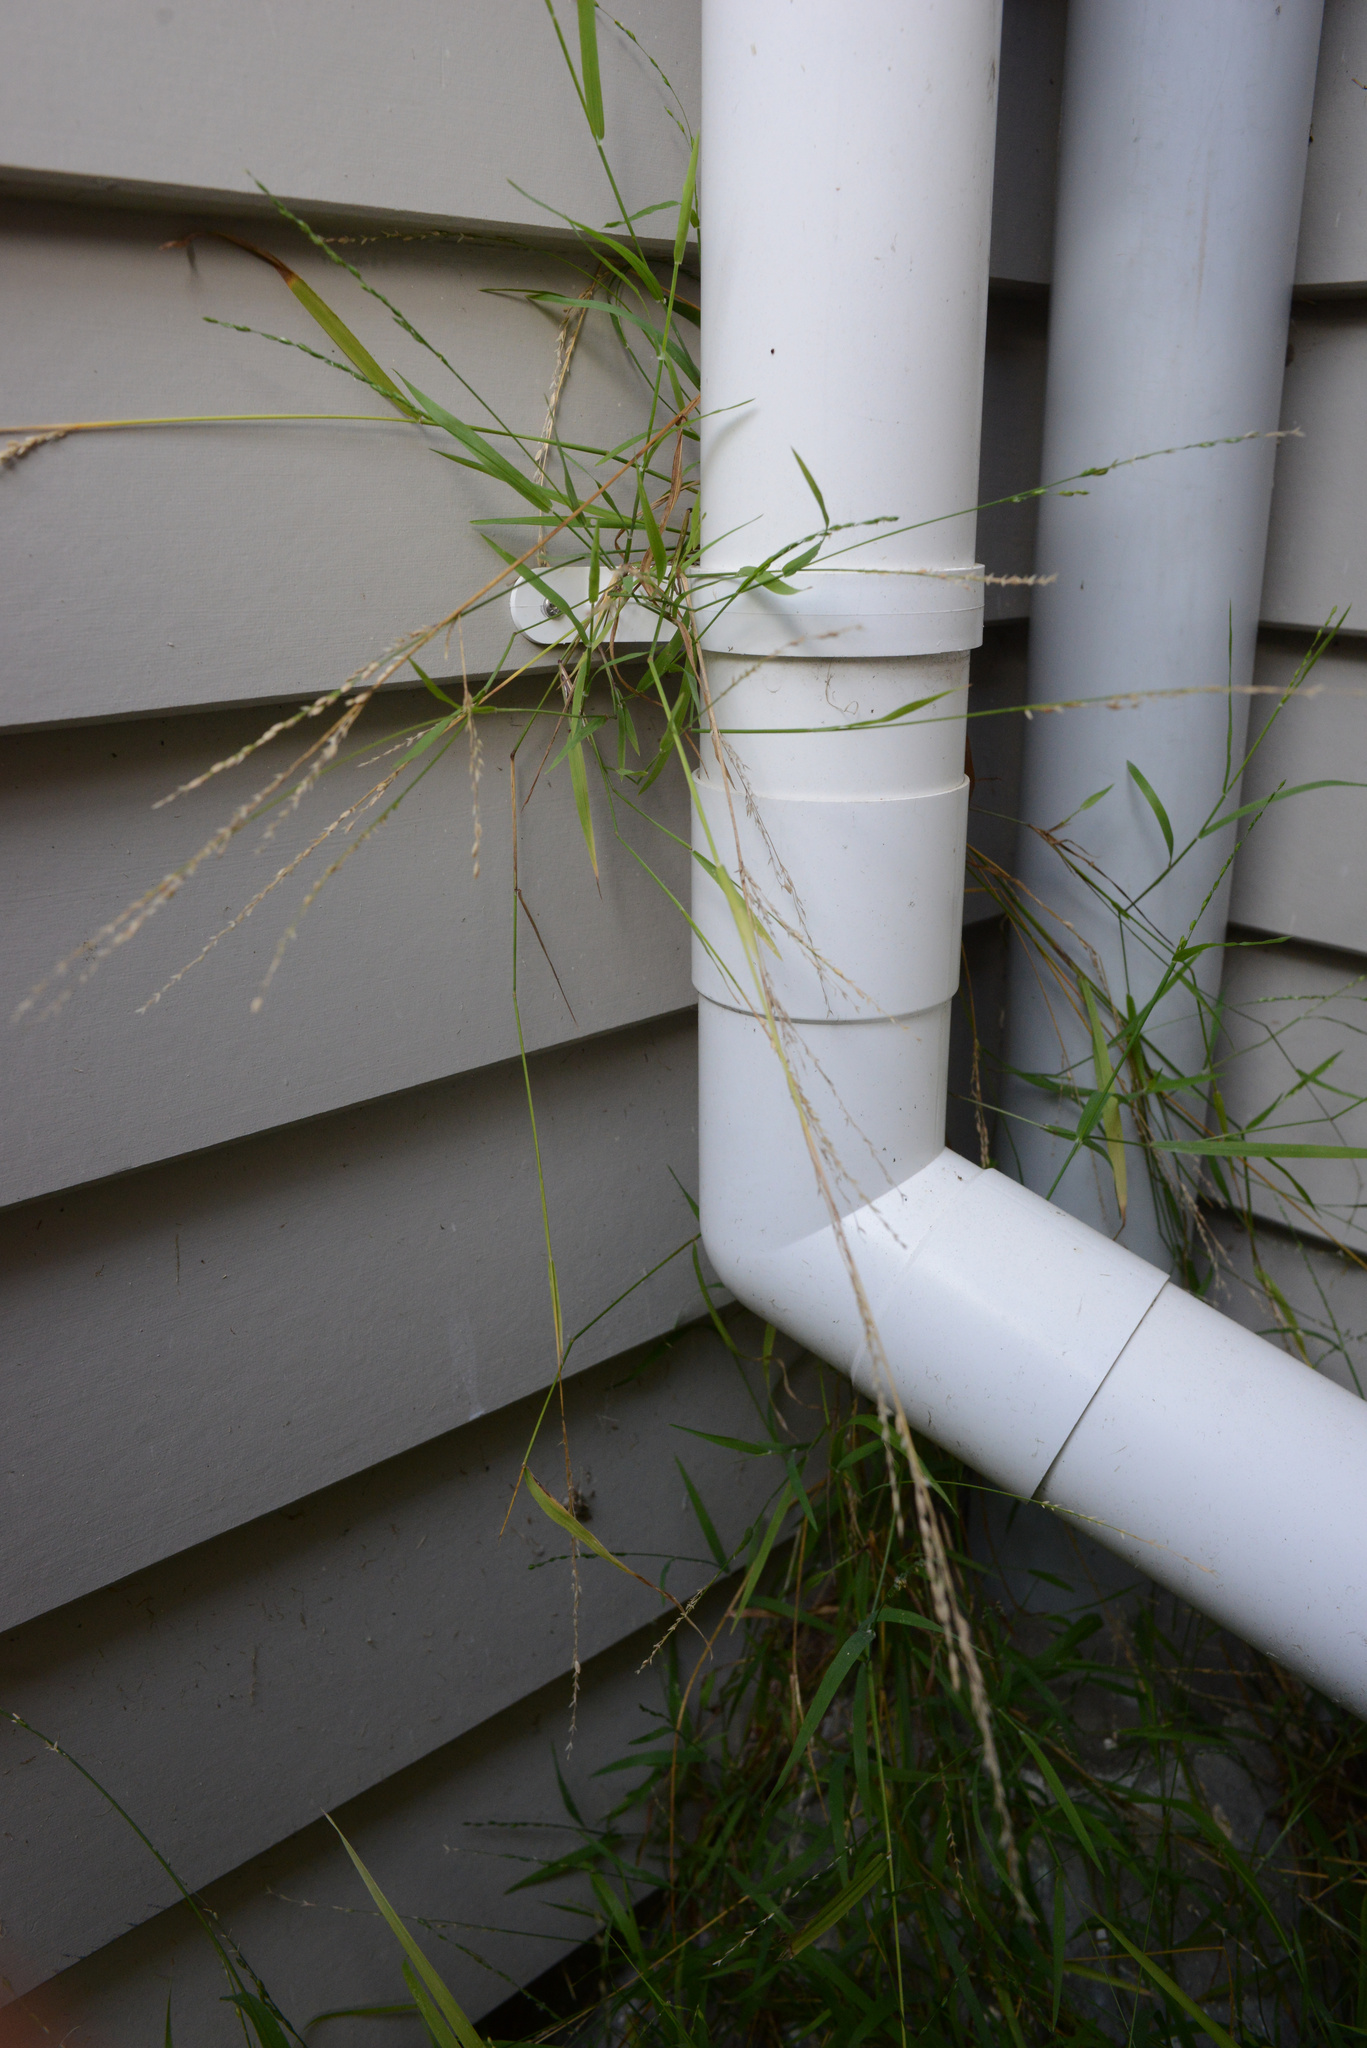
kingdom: Plantae
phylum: Tracheophyta
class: Liliopsida
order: Poales
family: Poaceae
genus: Ehrharta
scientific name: Ehrharta erecta
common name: Panic veldtgrass
